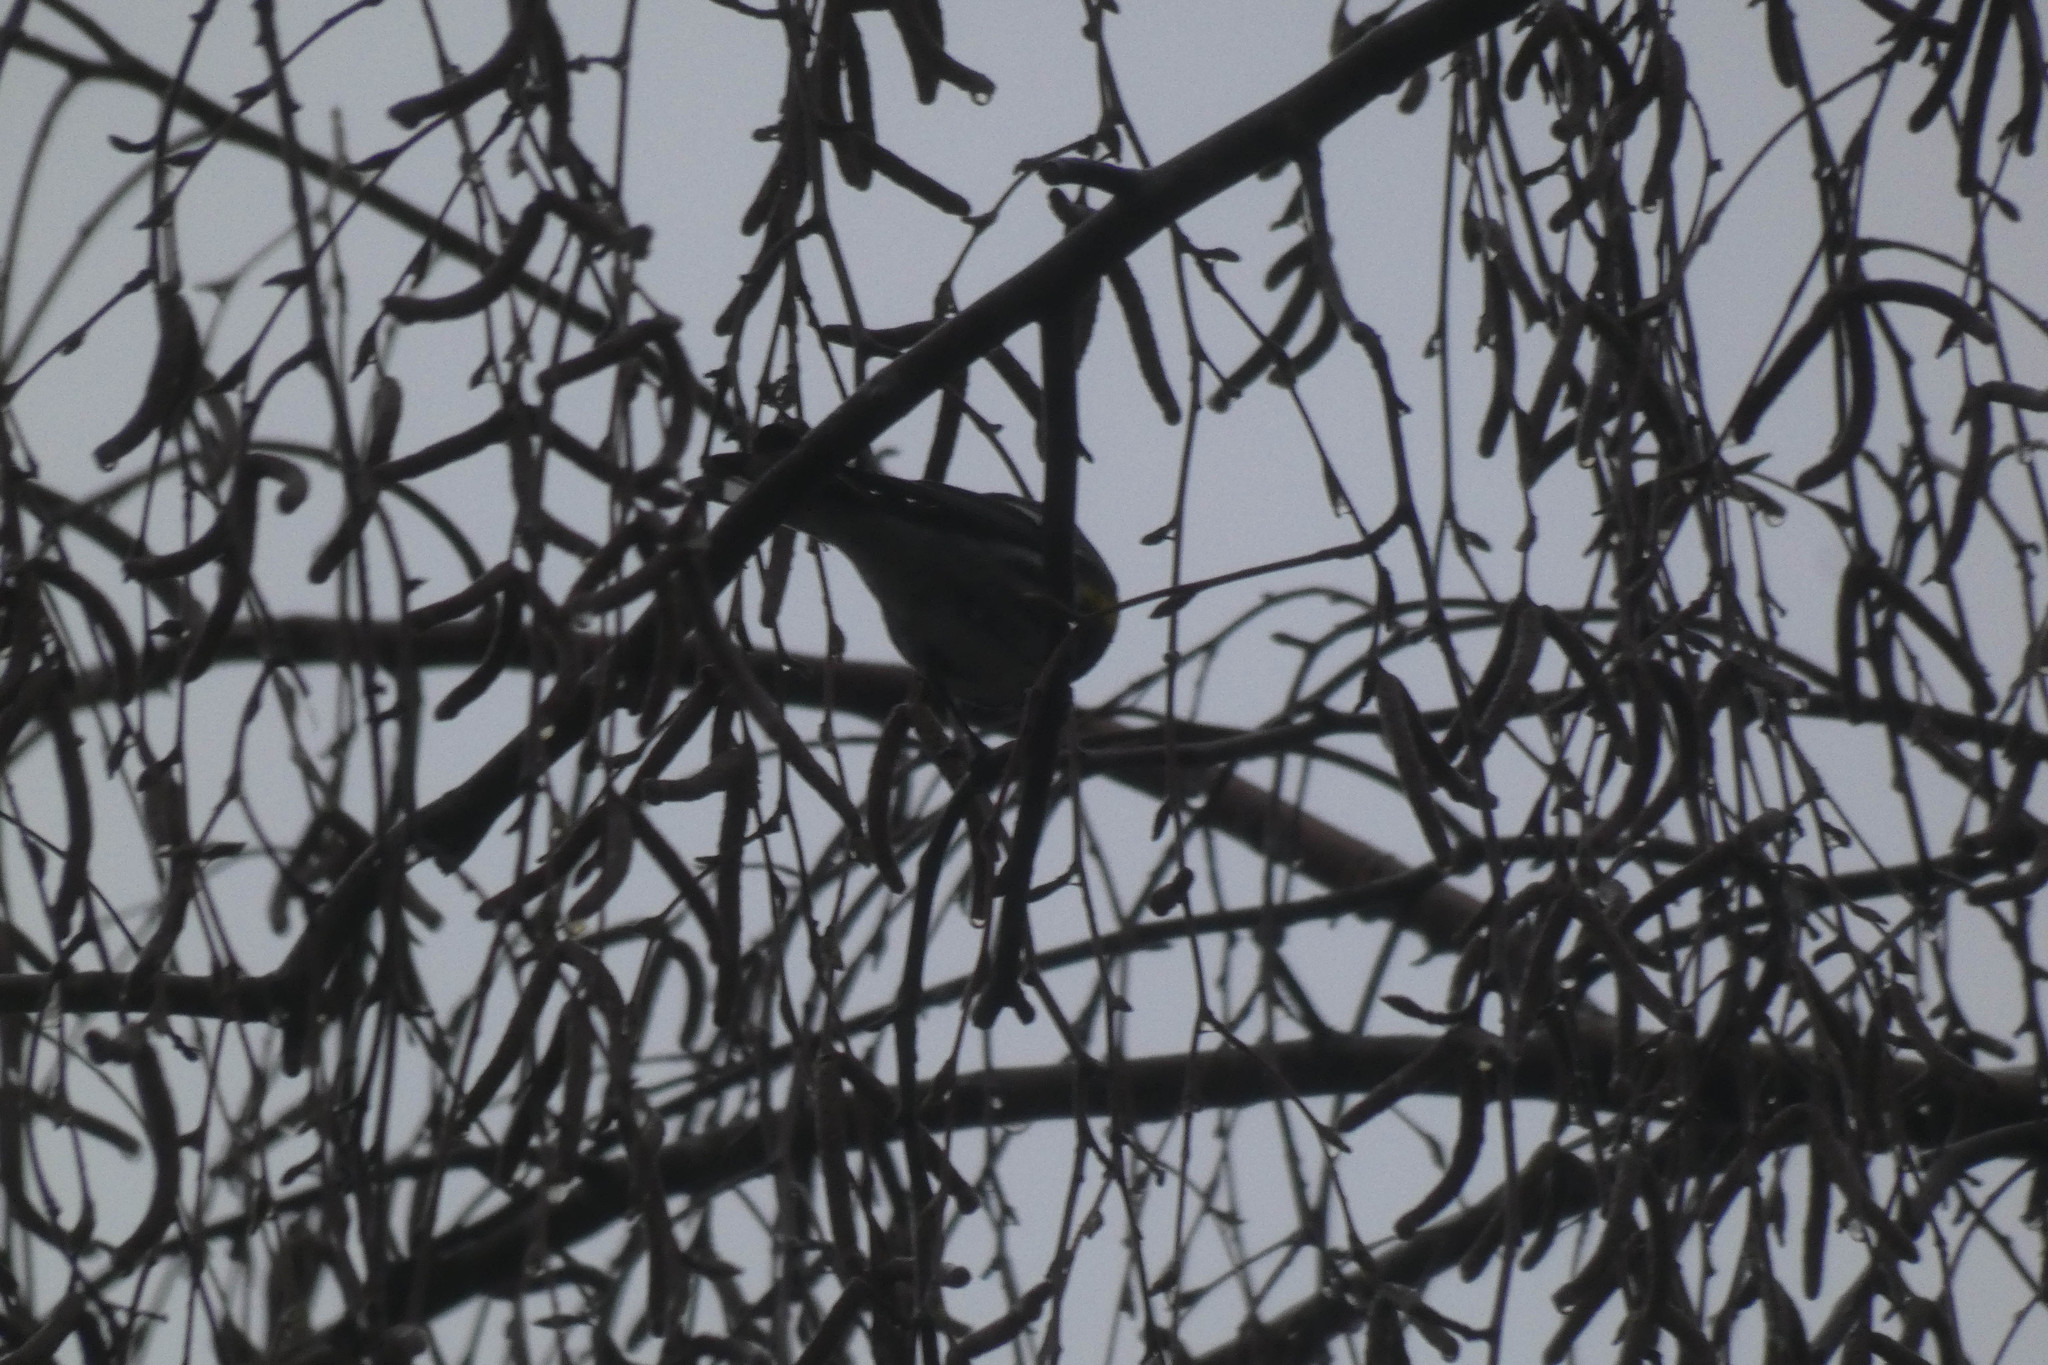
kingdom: Animalia
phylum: Chordata
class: Aves
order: Passeriformes
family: Parulidae
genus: Setophaga
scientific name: Setophaga coronata
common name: Myrtle warbler
